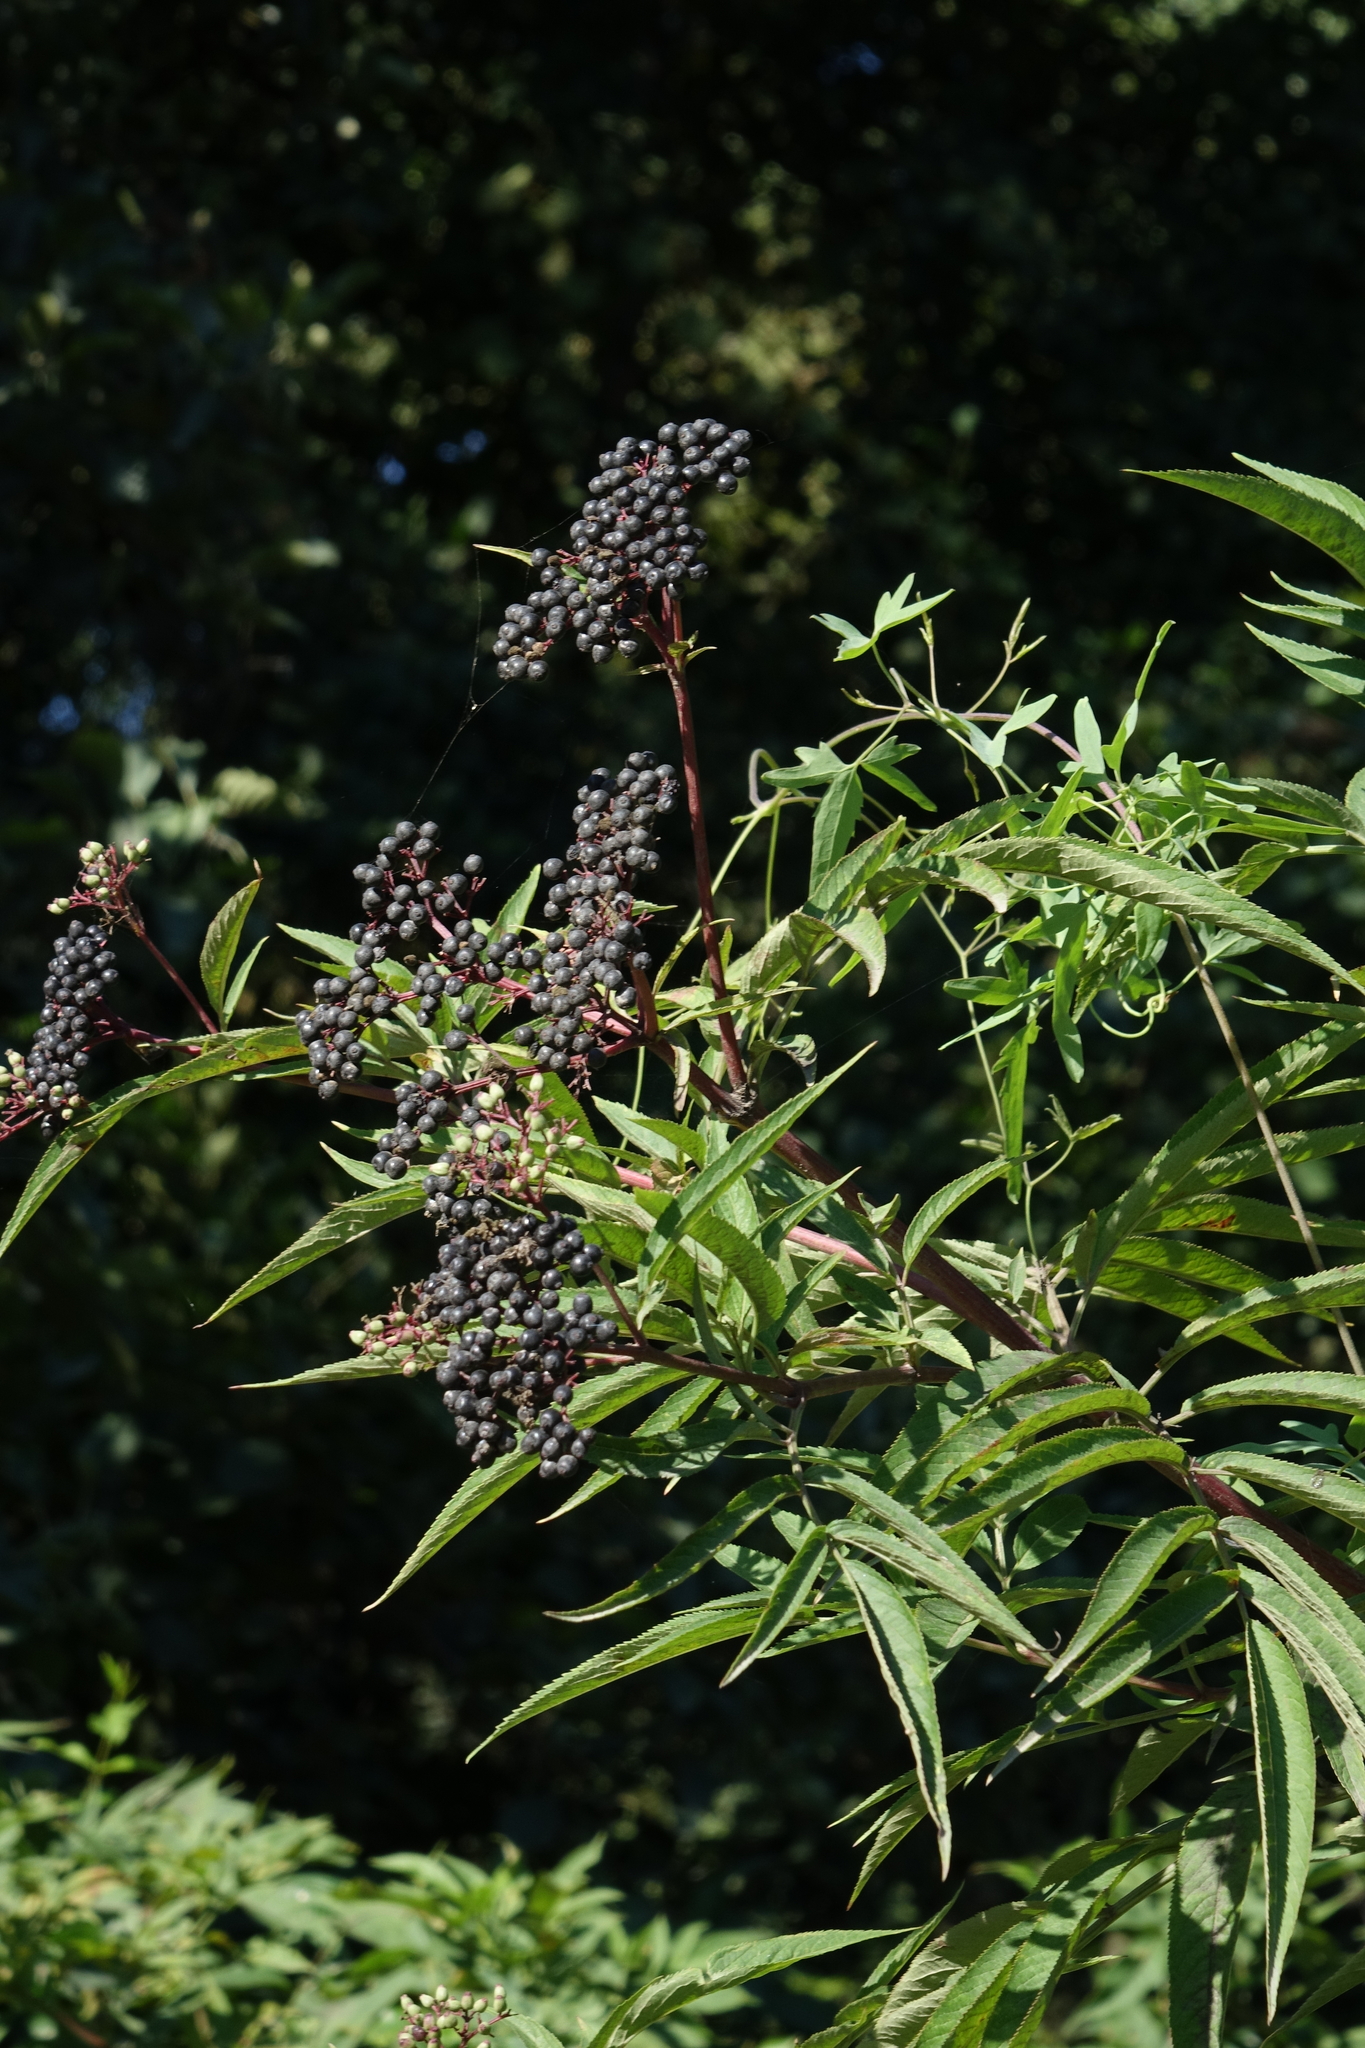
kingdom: Plantae
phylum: Tracheophyta
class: Magnoliopsida
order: Dipsacales
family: Viburnaceae
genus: Sambucus
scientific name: Sambucus ebulus
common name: Dwarf elder
